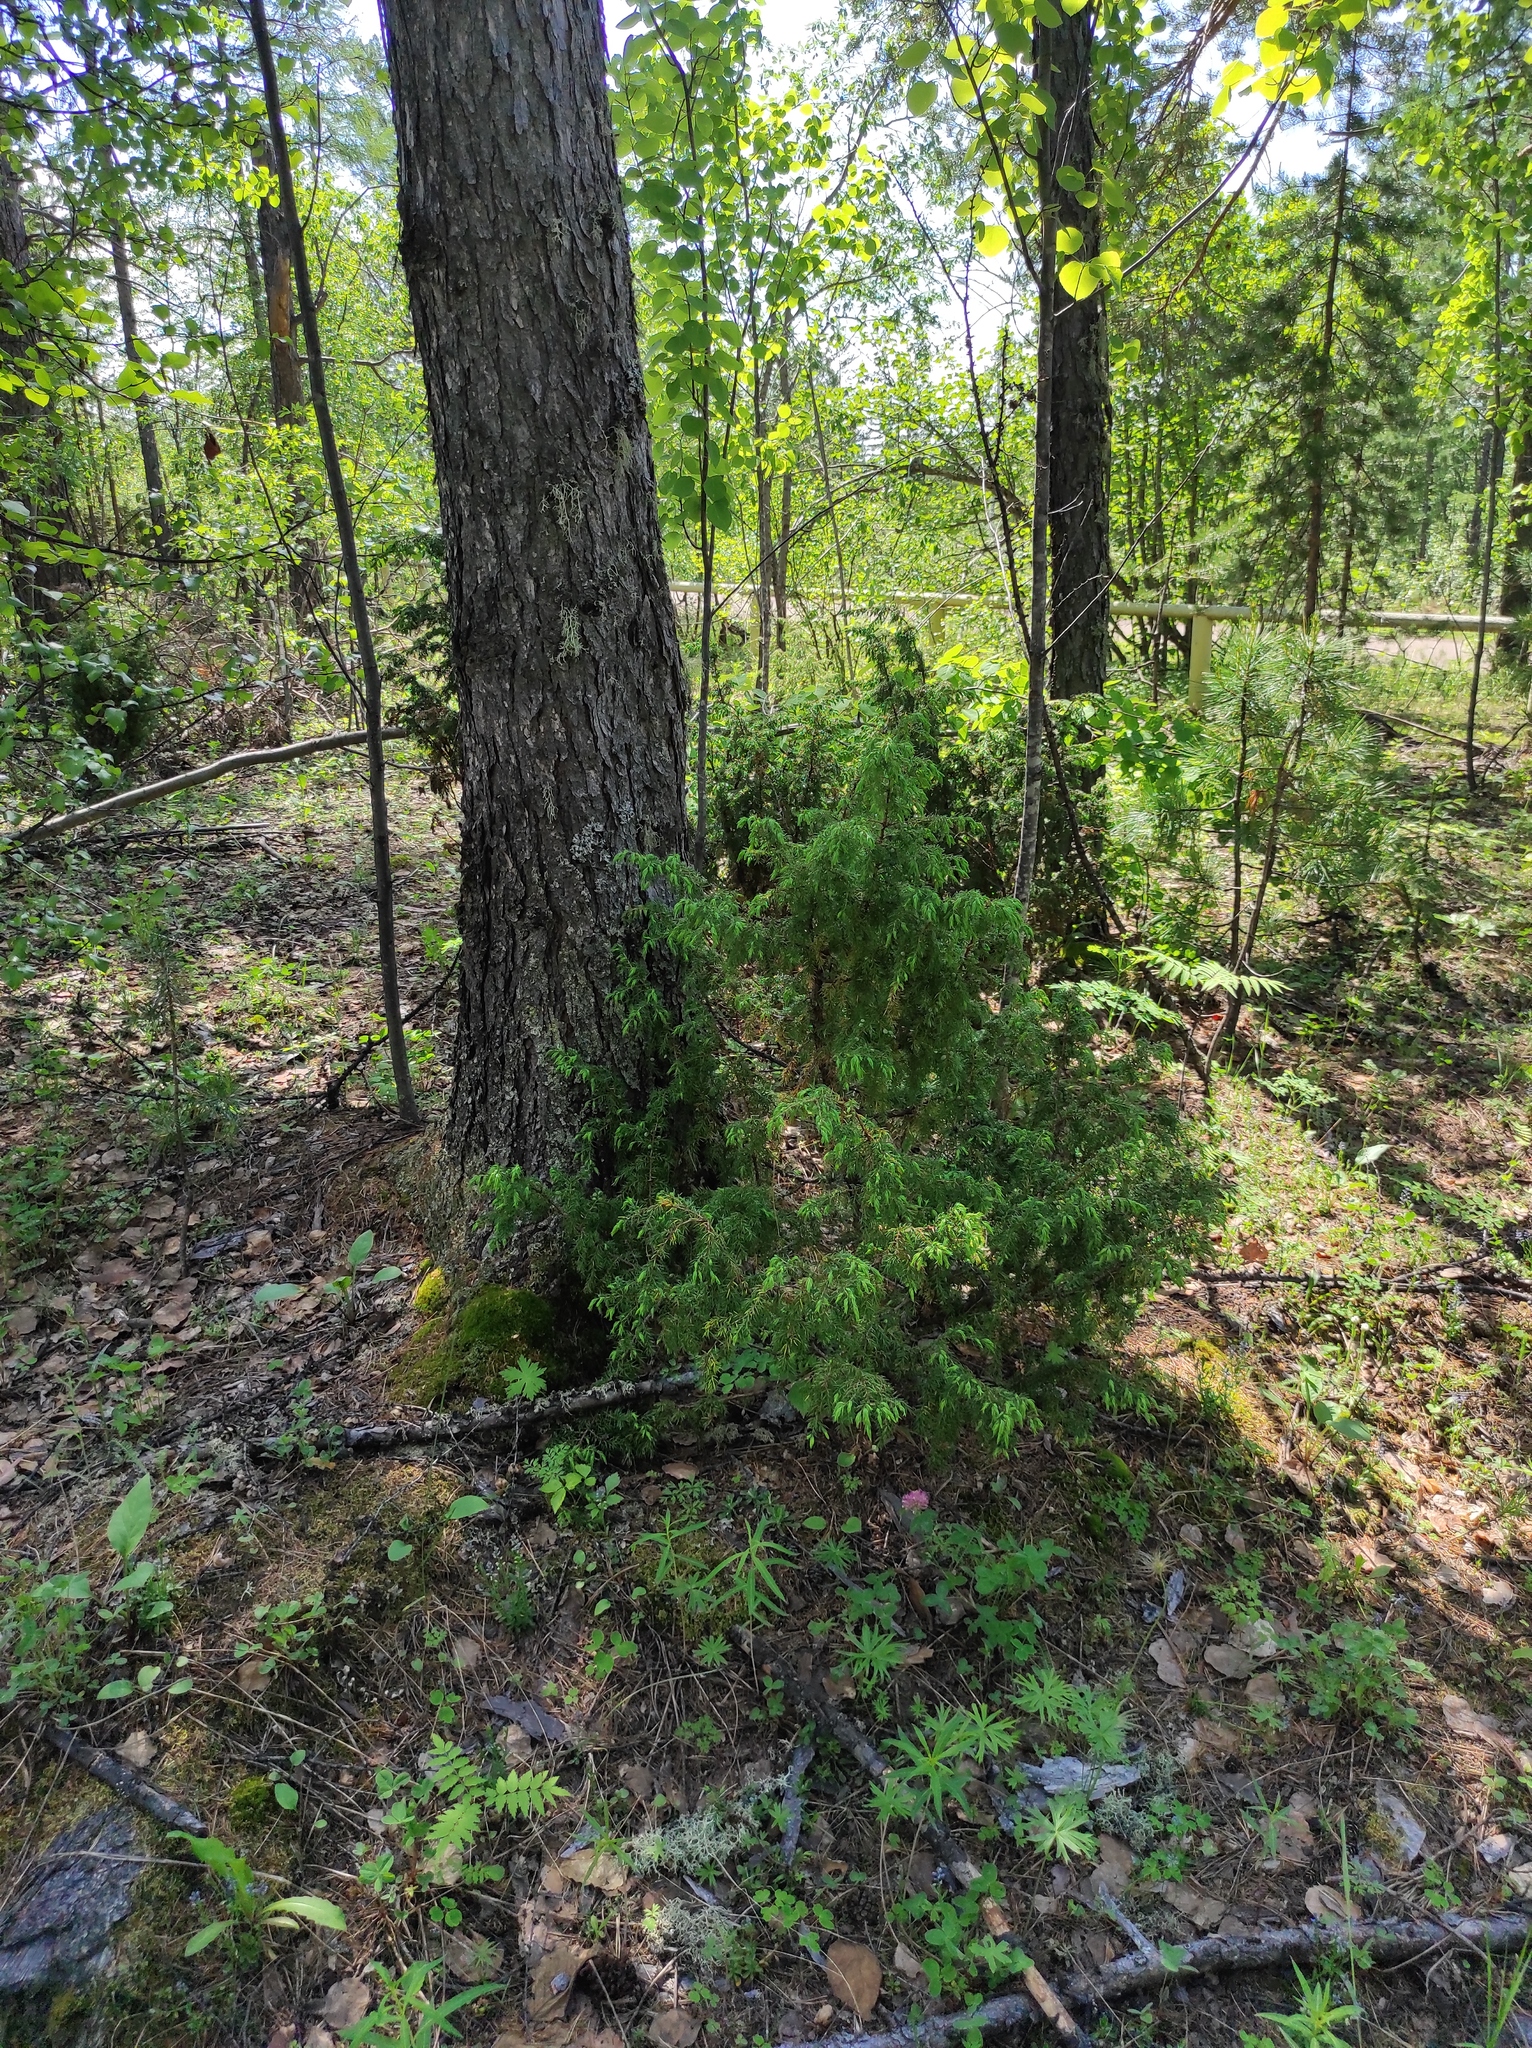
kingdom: Plantae
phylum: Tracheophyta
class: Pinopsida
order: Pinales
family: Cupressaceae
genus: Juniperus
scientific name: Juniperus communis
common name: Common juniper
